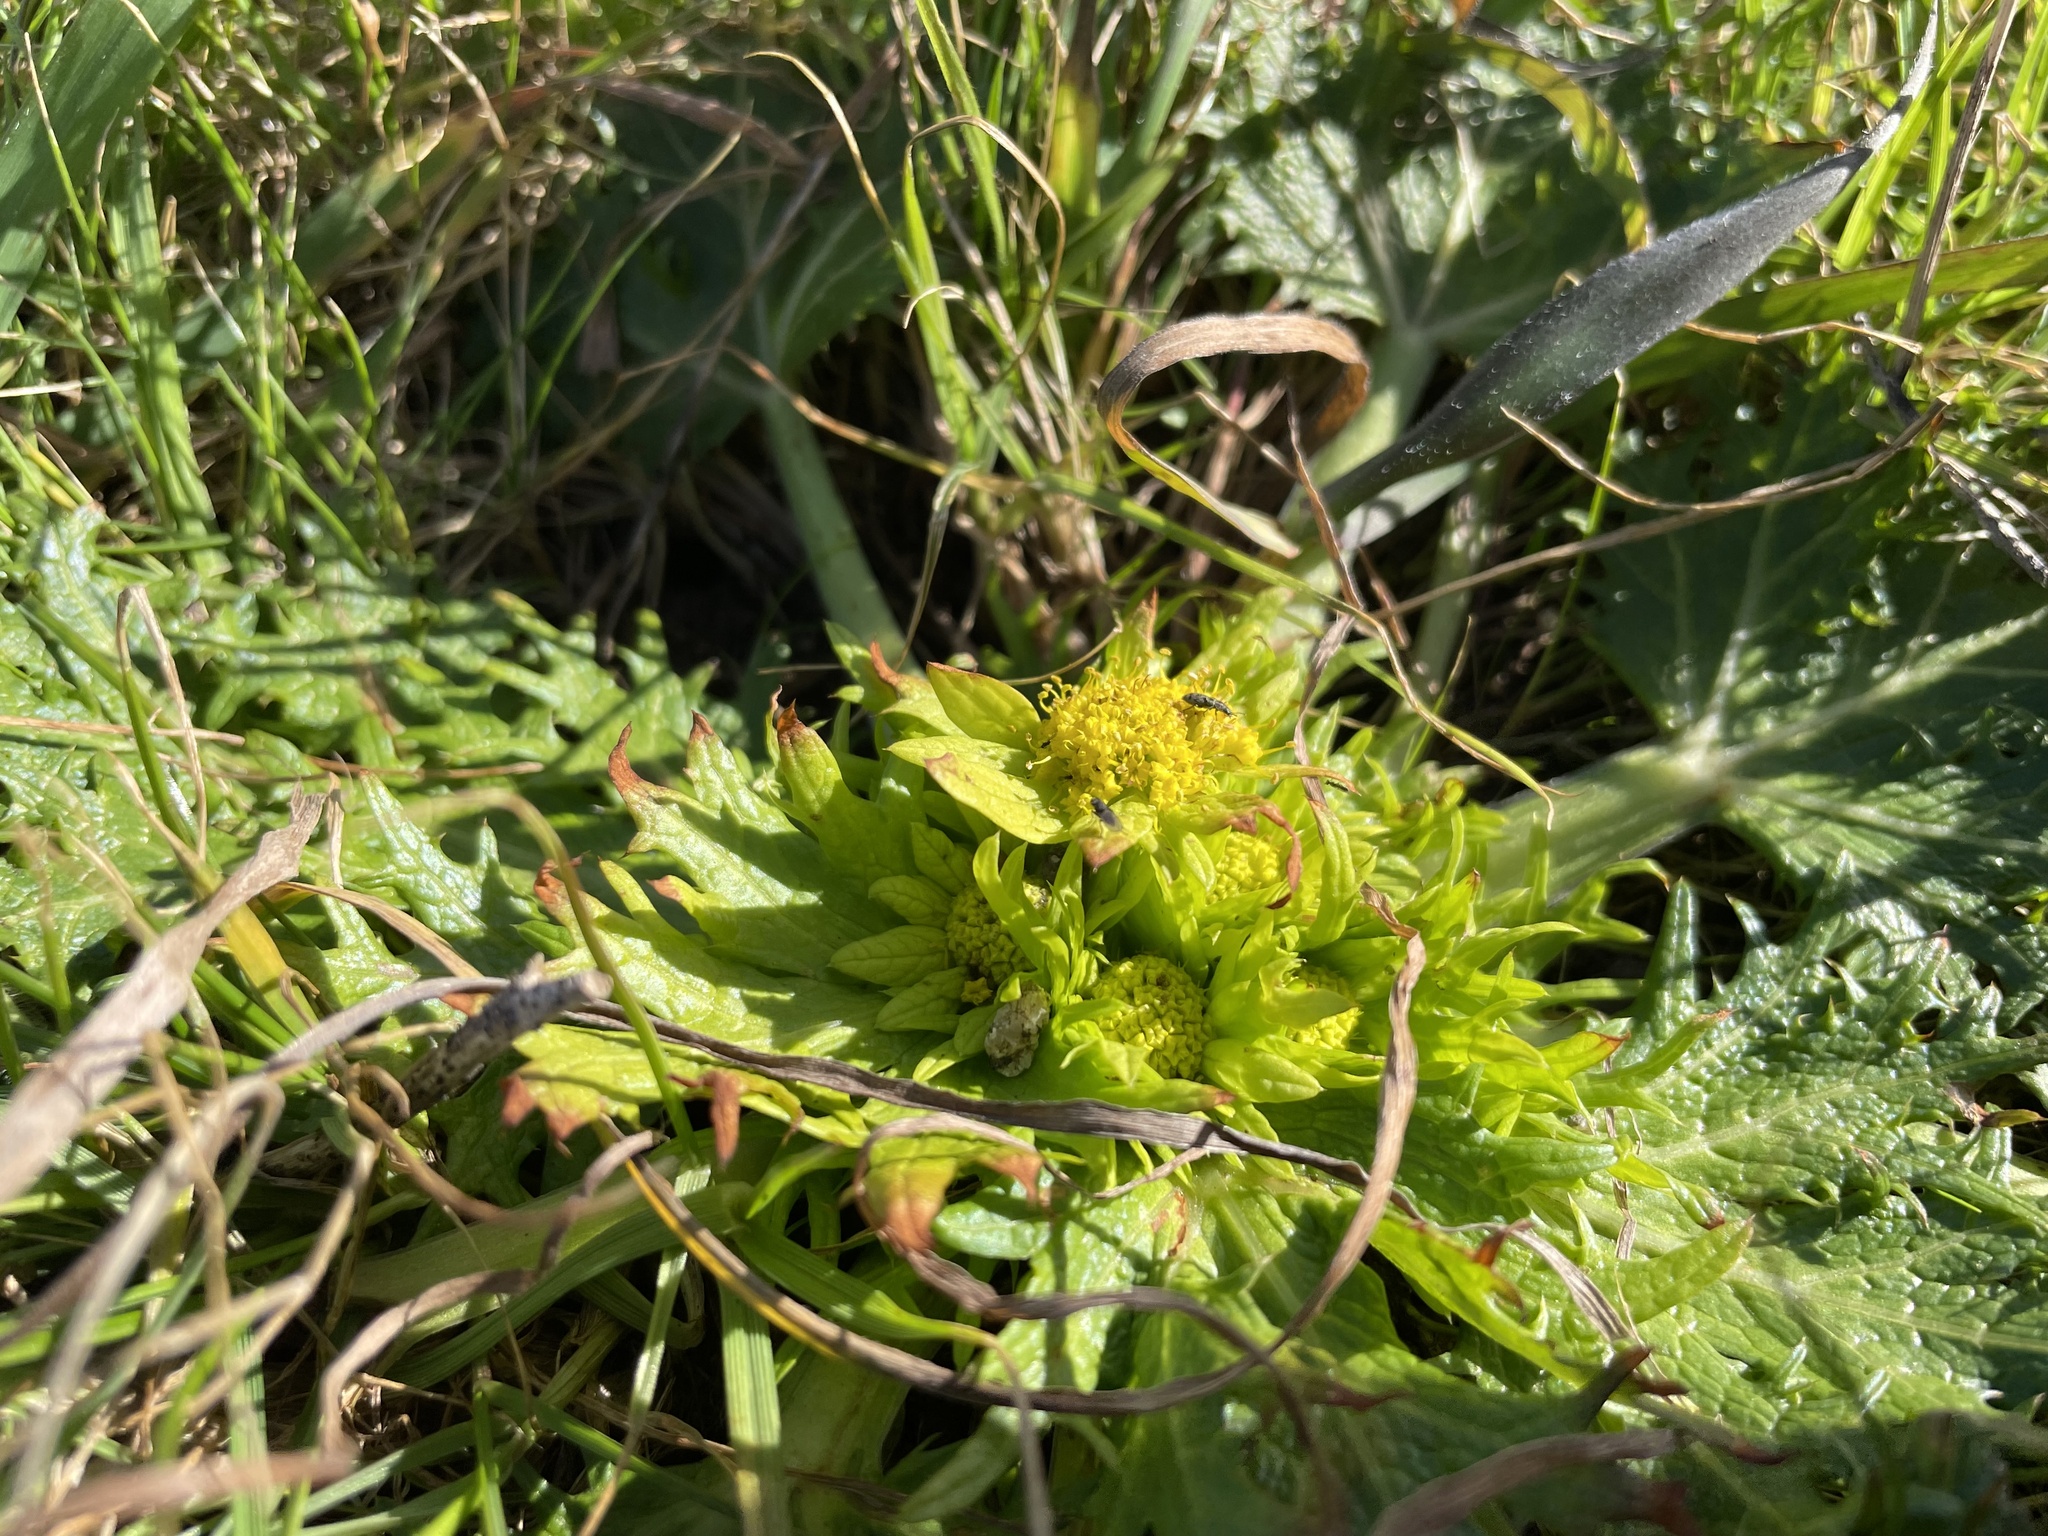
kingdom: Plantae
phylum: Tracheophyta
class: Magnoliopsida
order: Apiales
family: Apiaceae
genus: Sanicula
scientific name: Sanicula arctopoides
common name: Footsteps-of-spring
